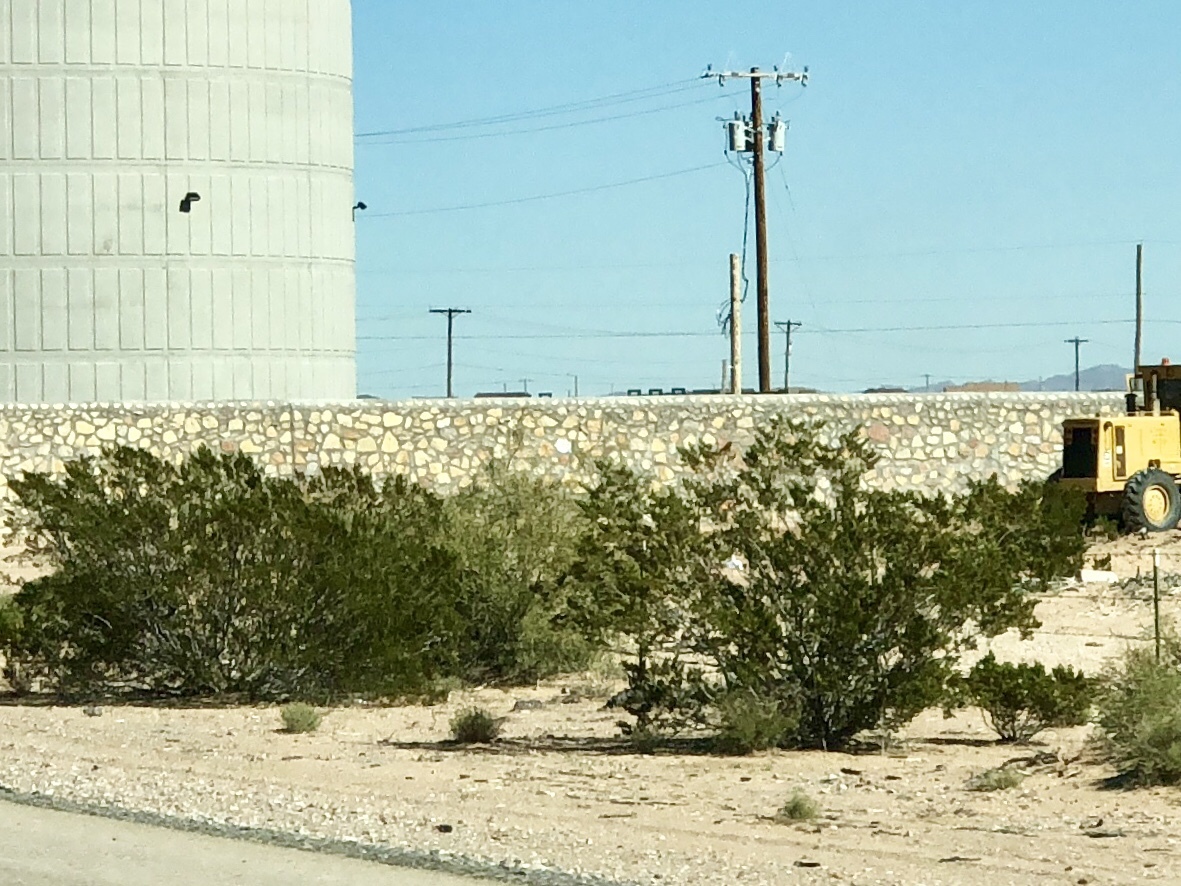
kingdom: Plantae
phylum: Tracheophyta
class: Magnoliopsida
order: Zygophyllales
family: Zygophyllaceae
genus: Larrea
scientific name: Larrea tridentata
